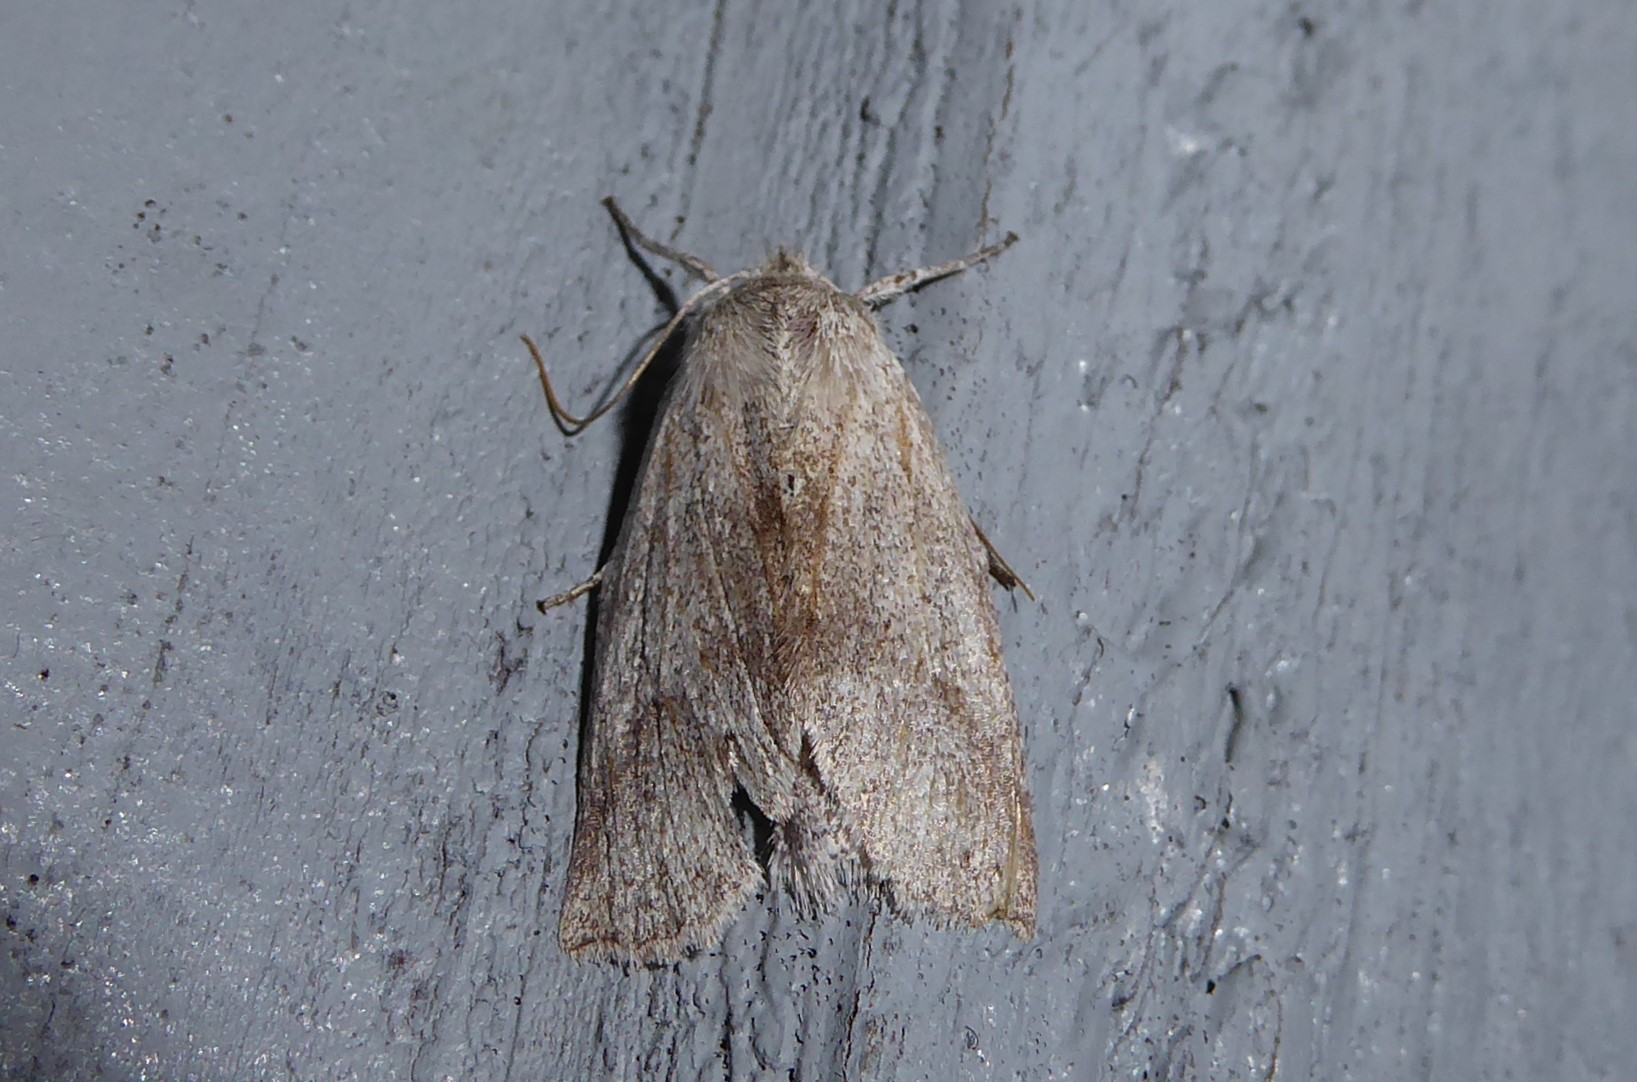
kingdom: Animalia
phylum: Arthropoda
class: Insecta
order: Lepidoptera
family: Geometridae
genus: Declana
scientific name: Declana leptomera
